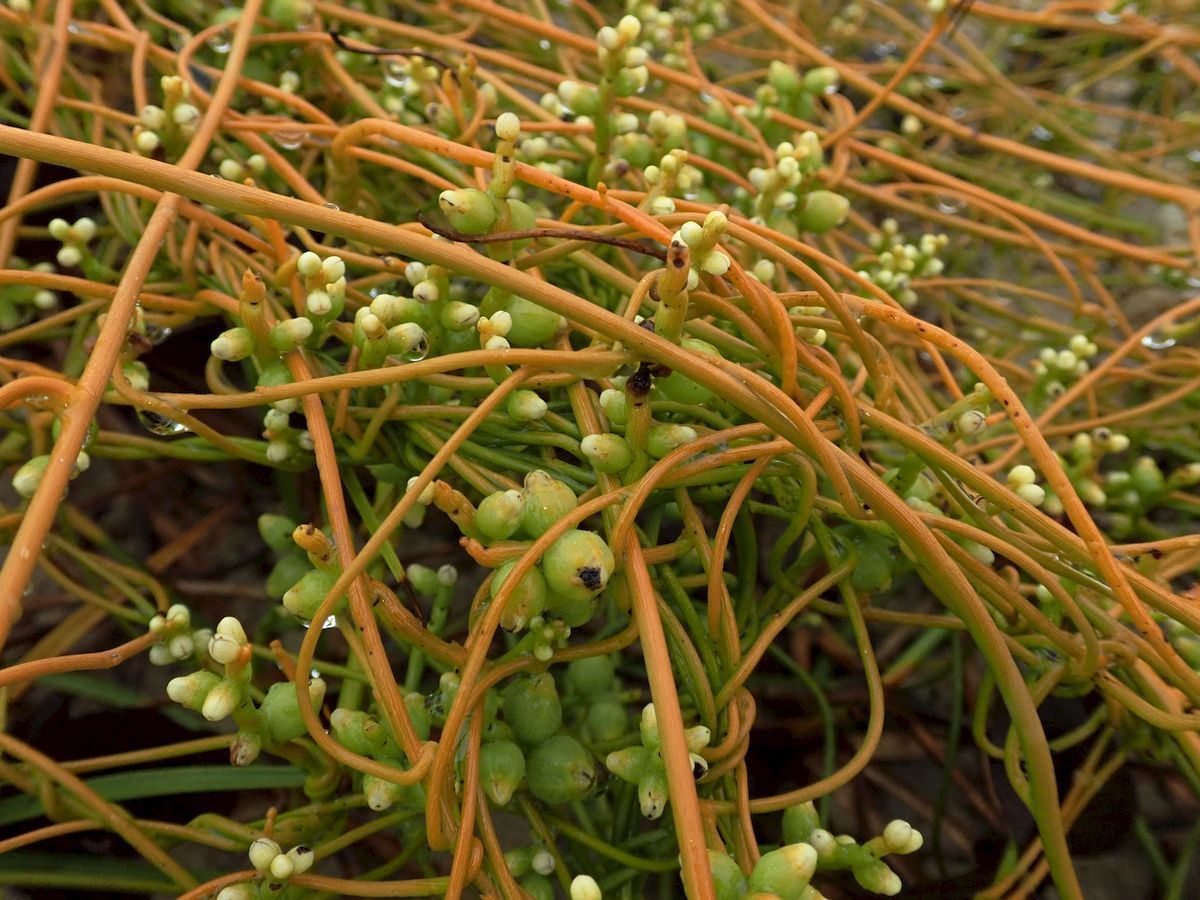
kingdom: Plantae
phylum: Tracheophyta
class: Magnoliopsida
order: Laurales
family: Lauraceae
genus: Cassytha
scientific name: Cassytha filiformis
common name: Dodder-laurel
